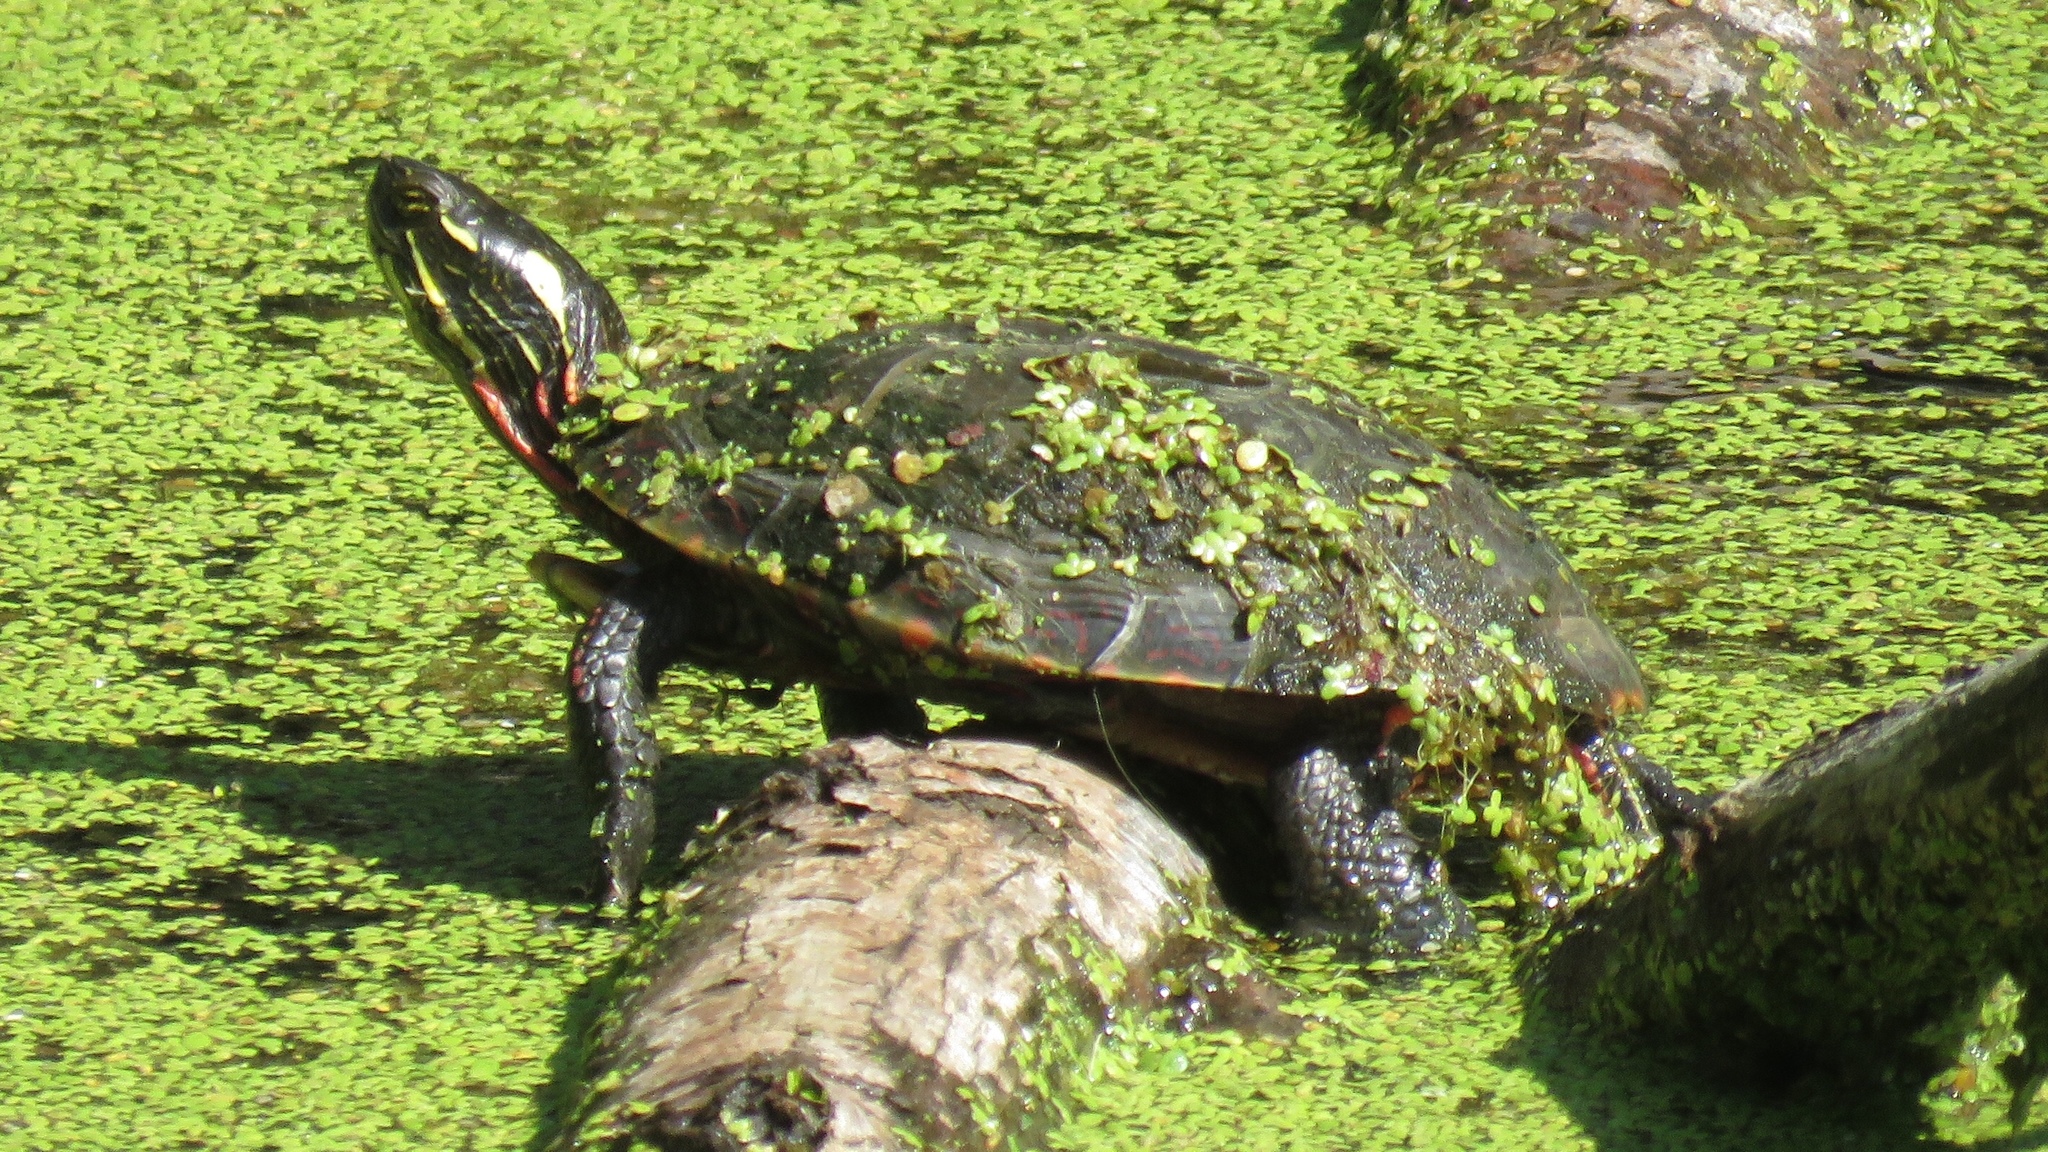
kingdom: Animalia
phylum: Chordata
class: Testudines
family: Emydidae
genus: Chrysemys
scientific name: Chrysemys picta
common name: Painted turtle
